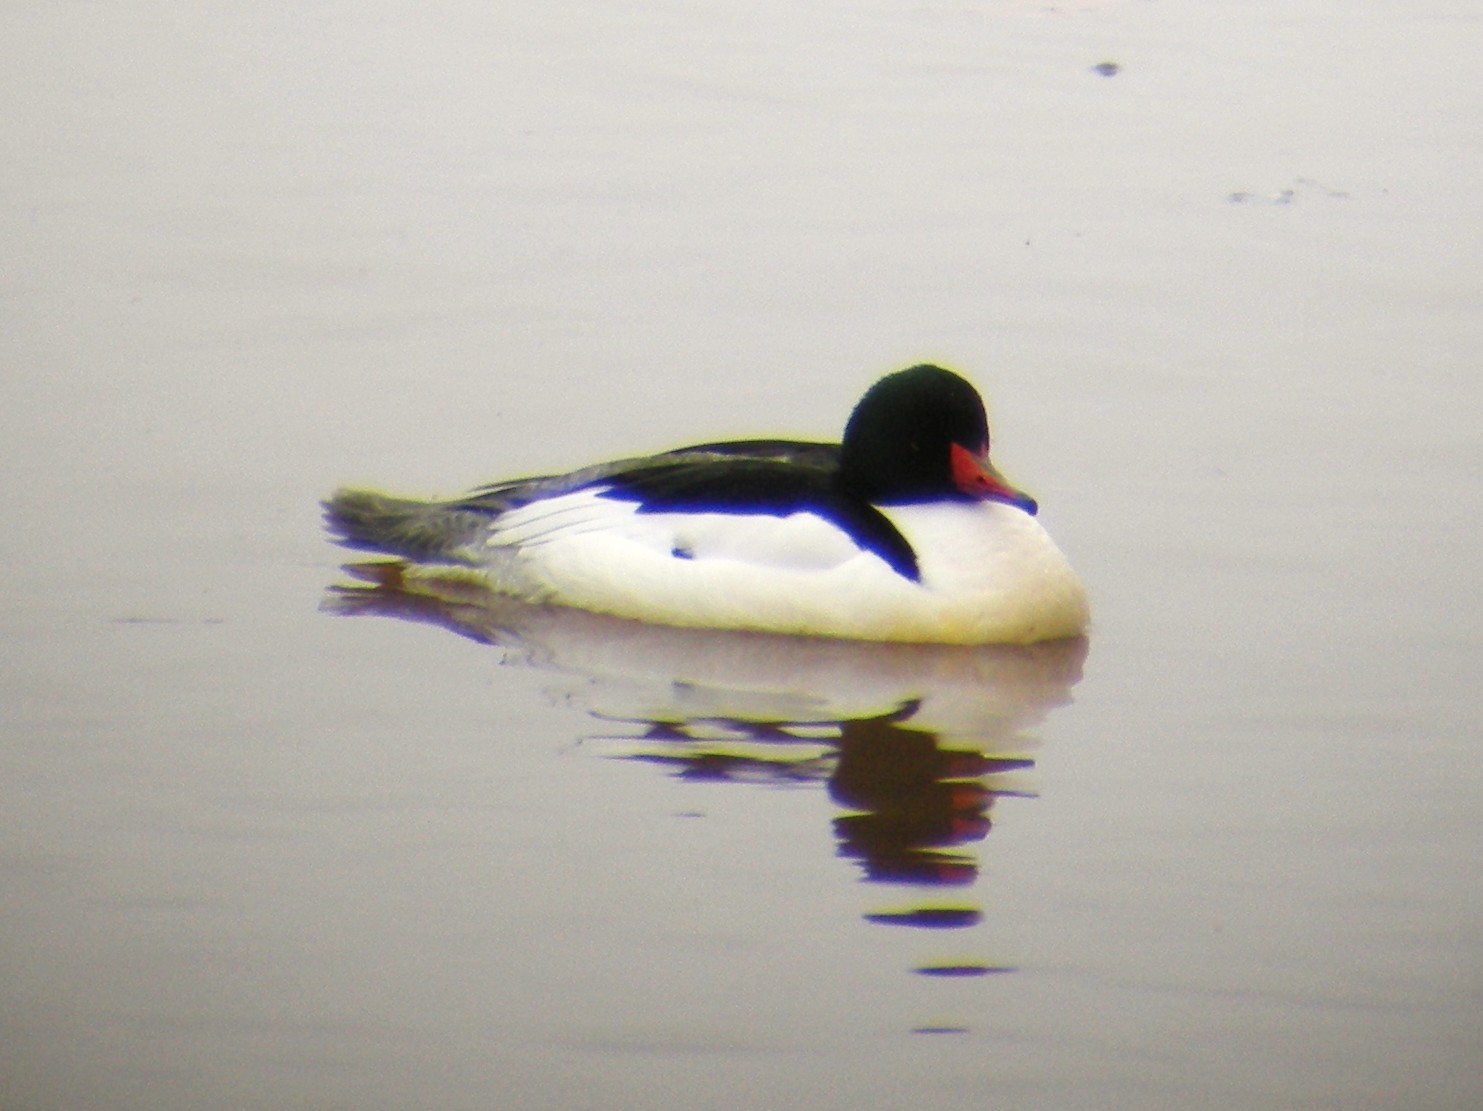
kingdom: Animalia
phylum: Chordata
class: Aves
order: Anseriformes
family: Anatidae
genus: Mergus
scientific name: Mergus merganser
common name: Common merganser
